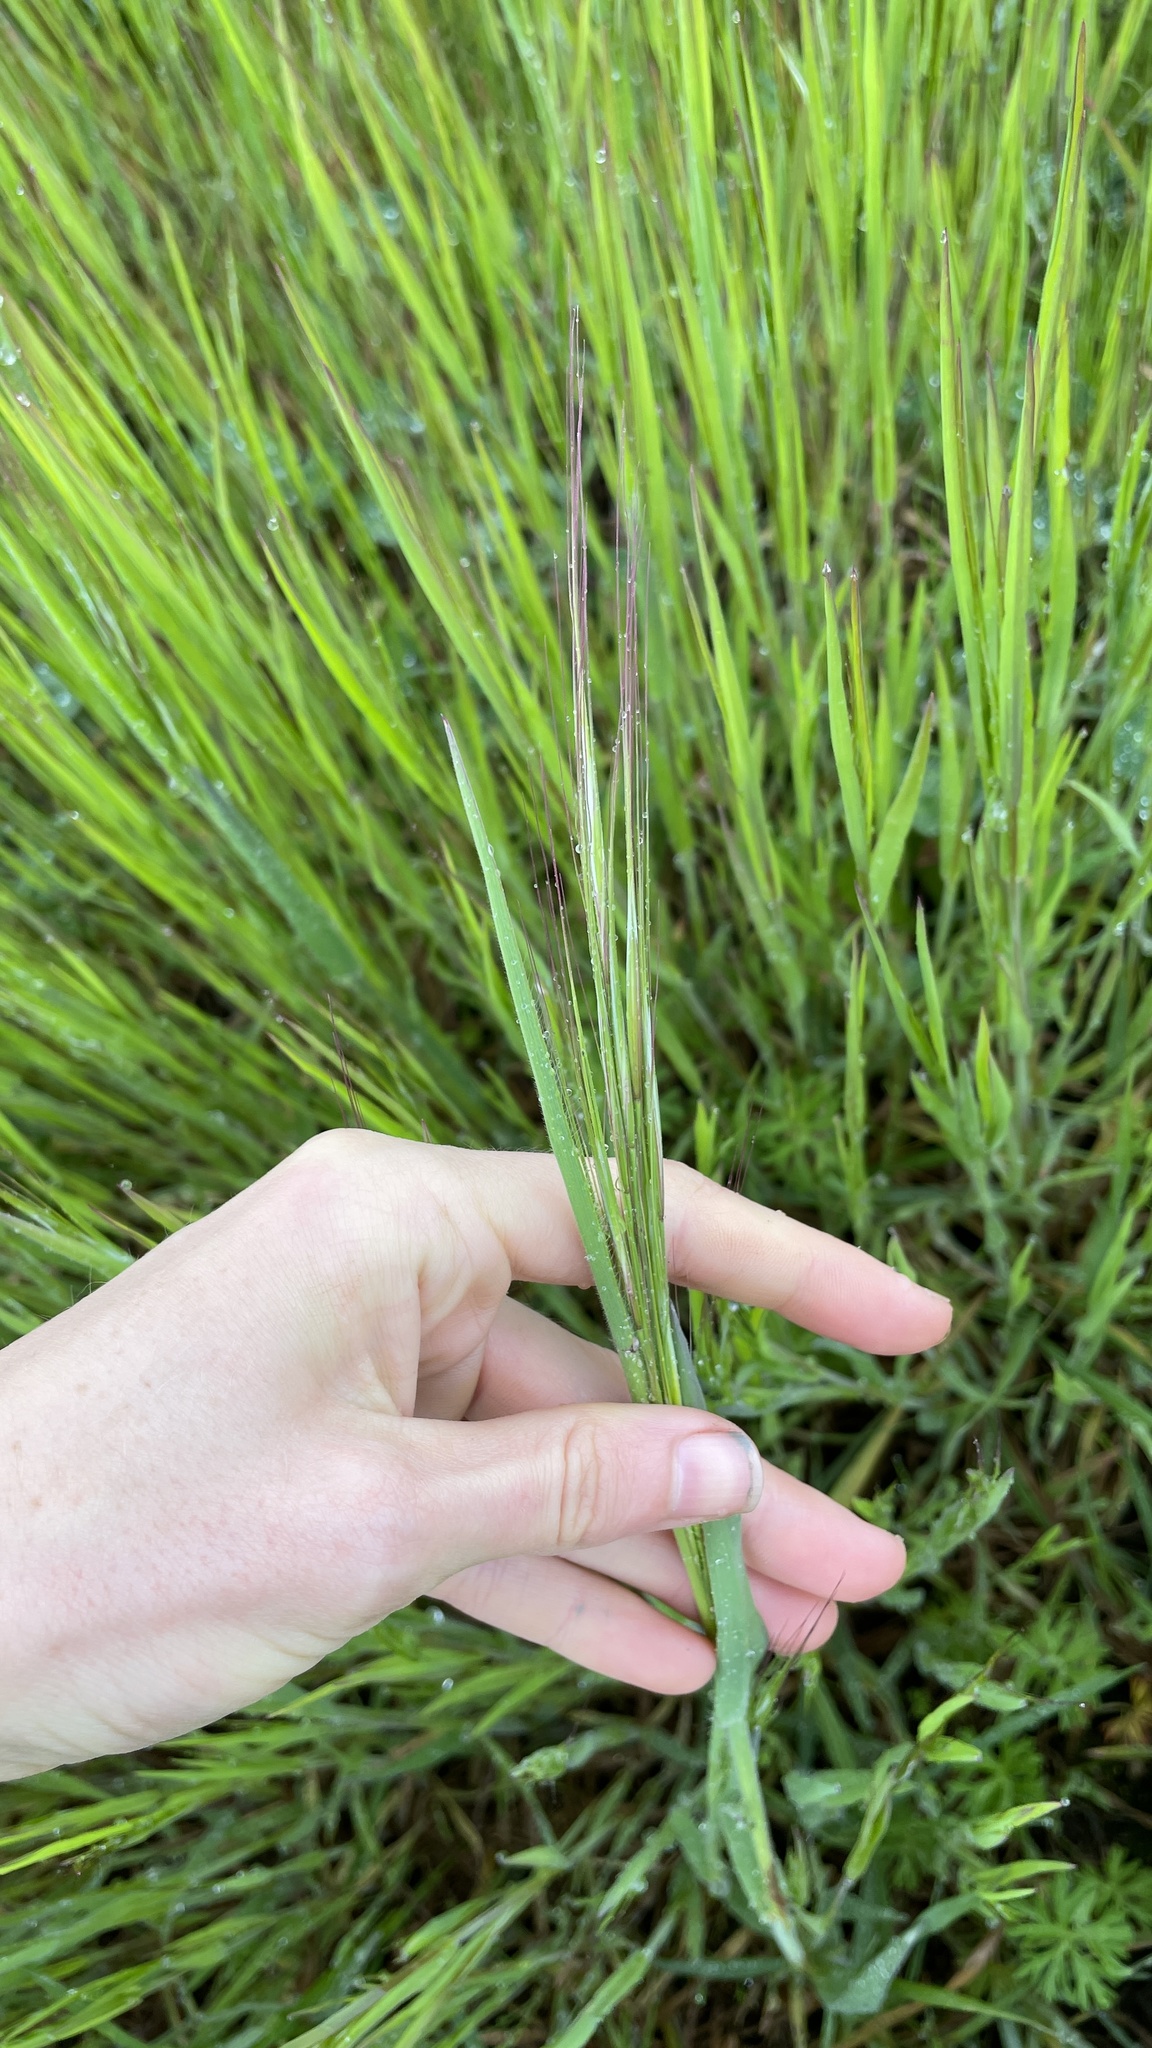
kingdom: Plantae
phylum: Tracheophyta
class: Liliopsida
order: Poales
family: Poaceae
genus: Bromus
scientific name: Bromus diandrus
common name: Ripgut brome
